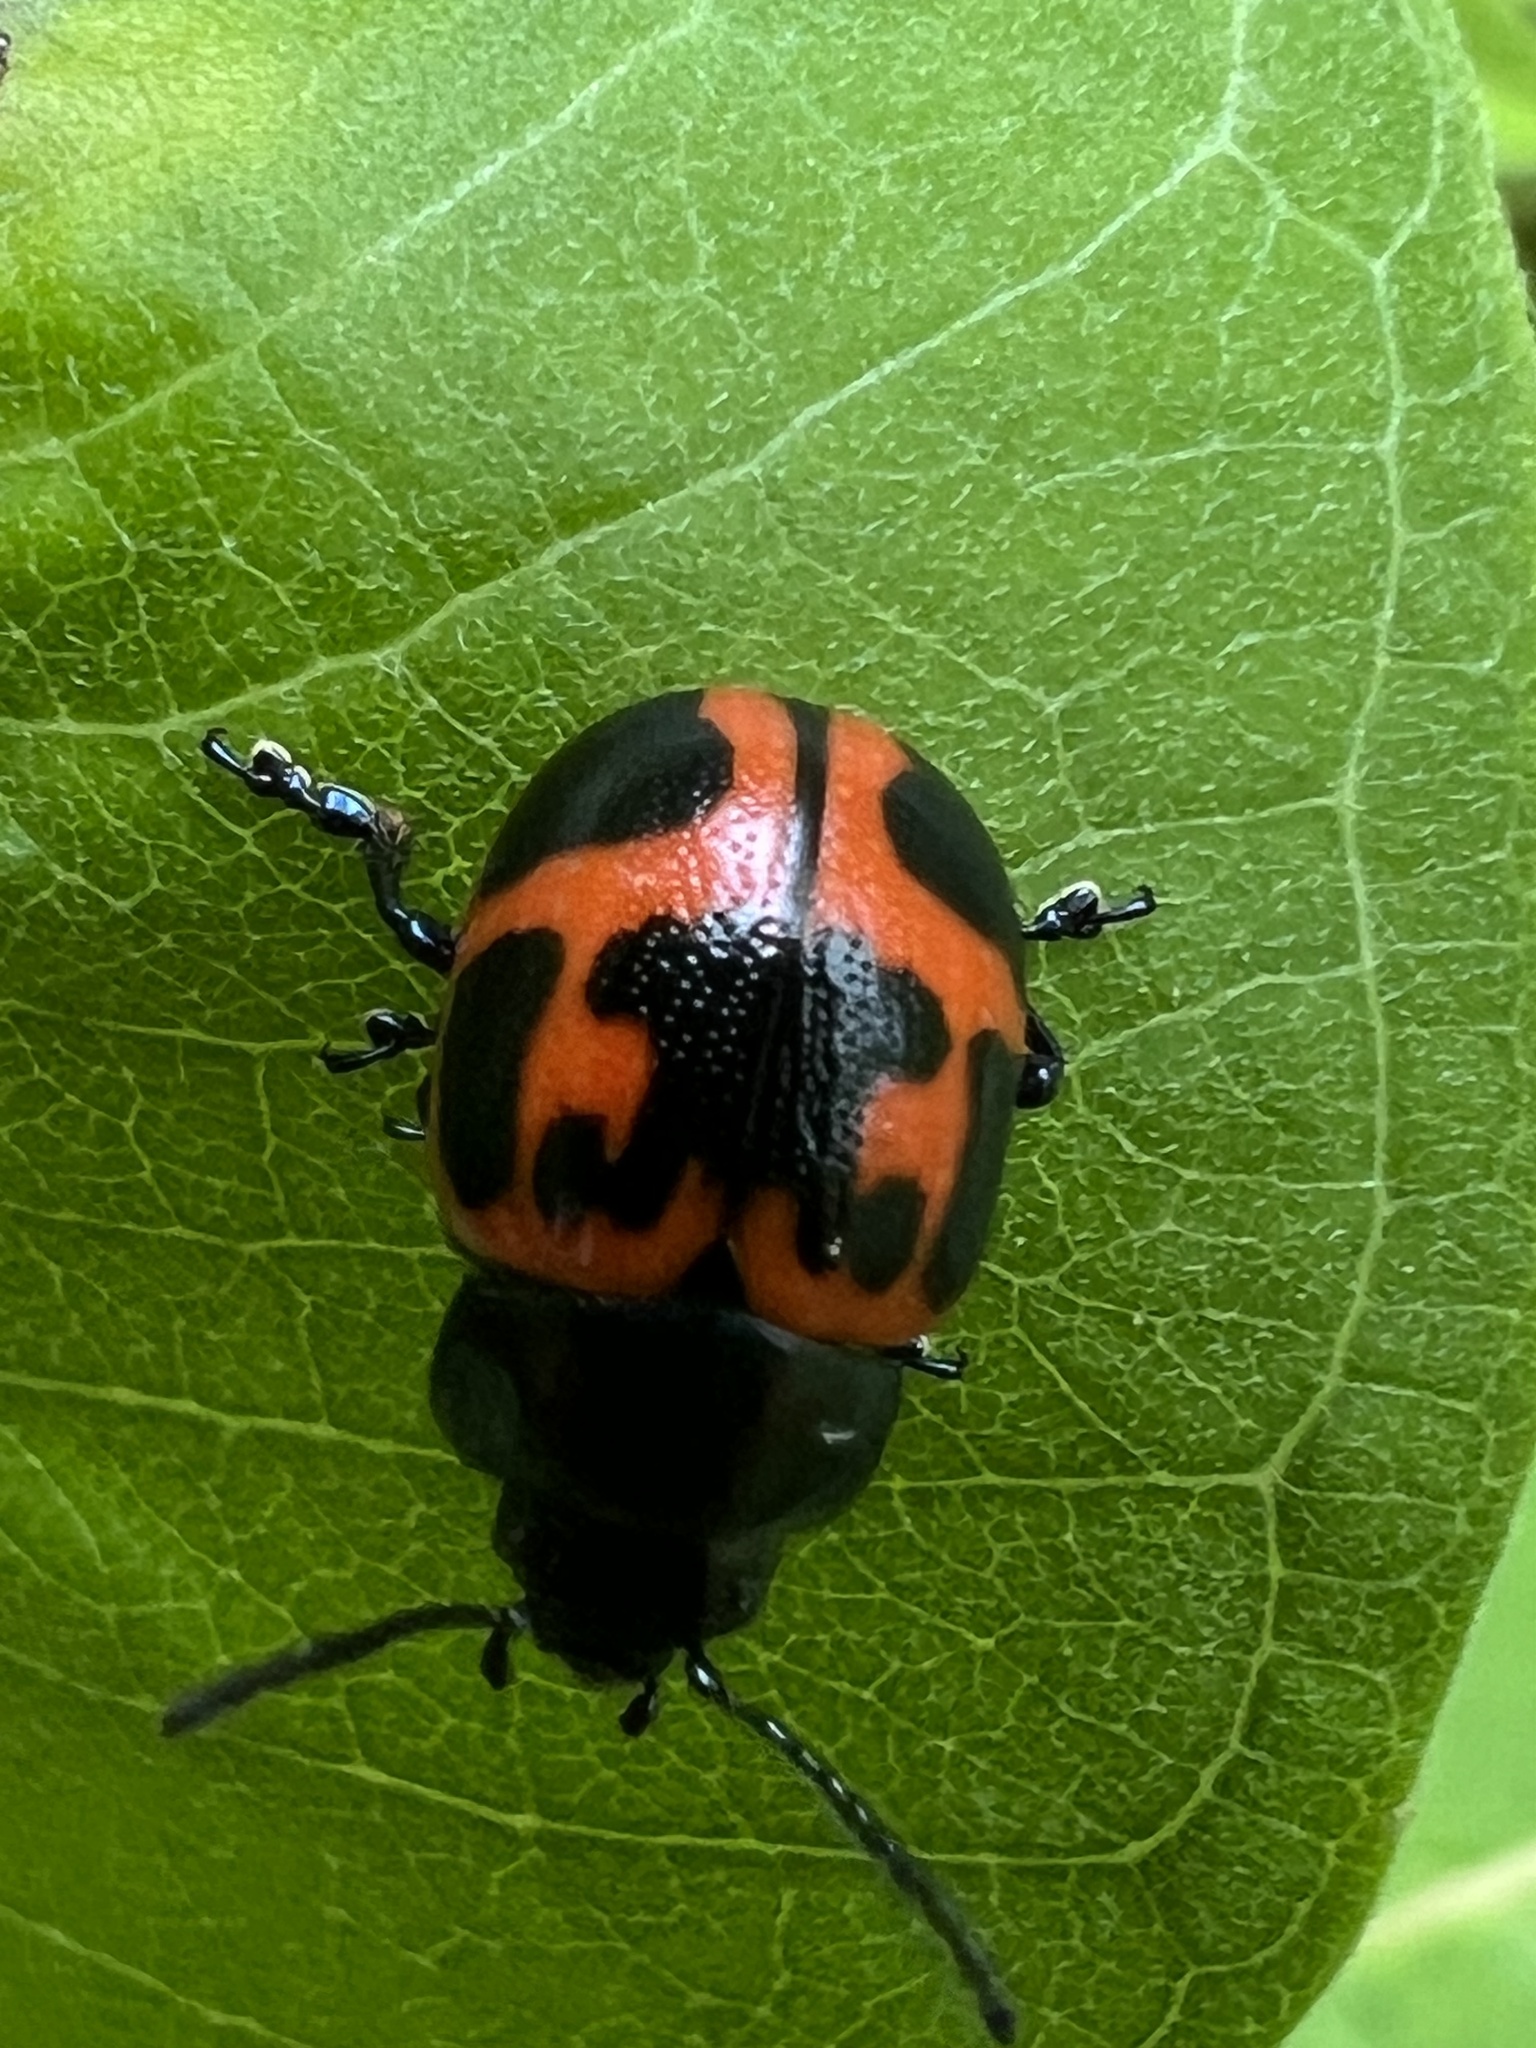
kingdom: Animalia
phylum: Arthropoda
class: Insecta
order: Coleoptera
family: Chrysomelidae
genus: Labidomera
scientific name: Labidomera clivicollis
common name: Swamp milkweed leaf beetle
